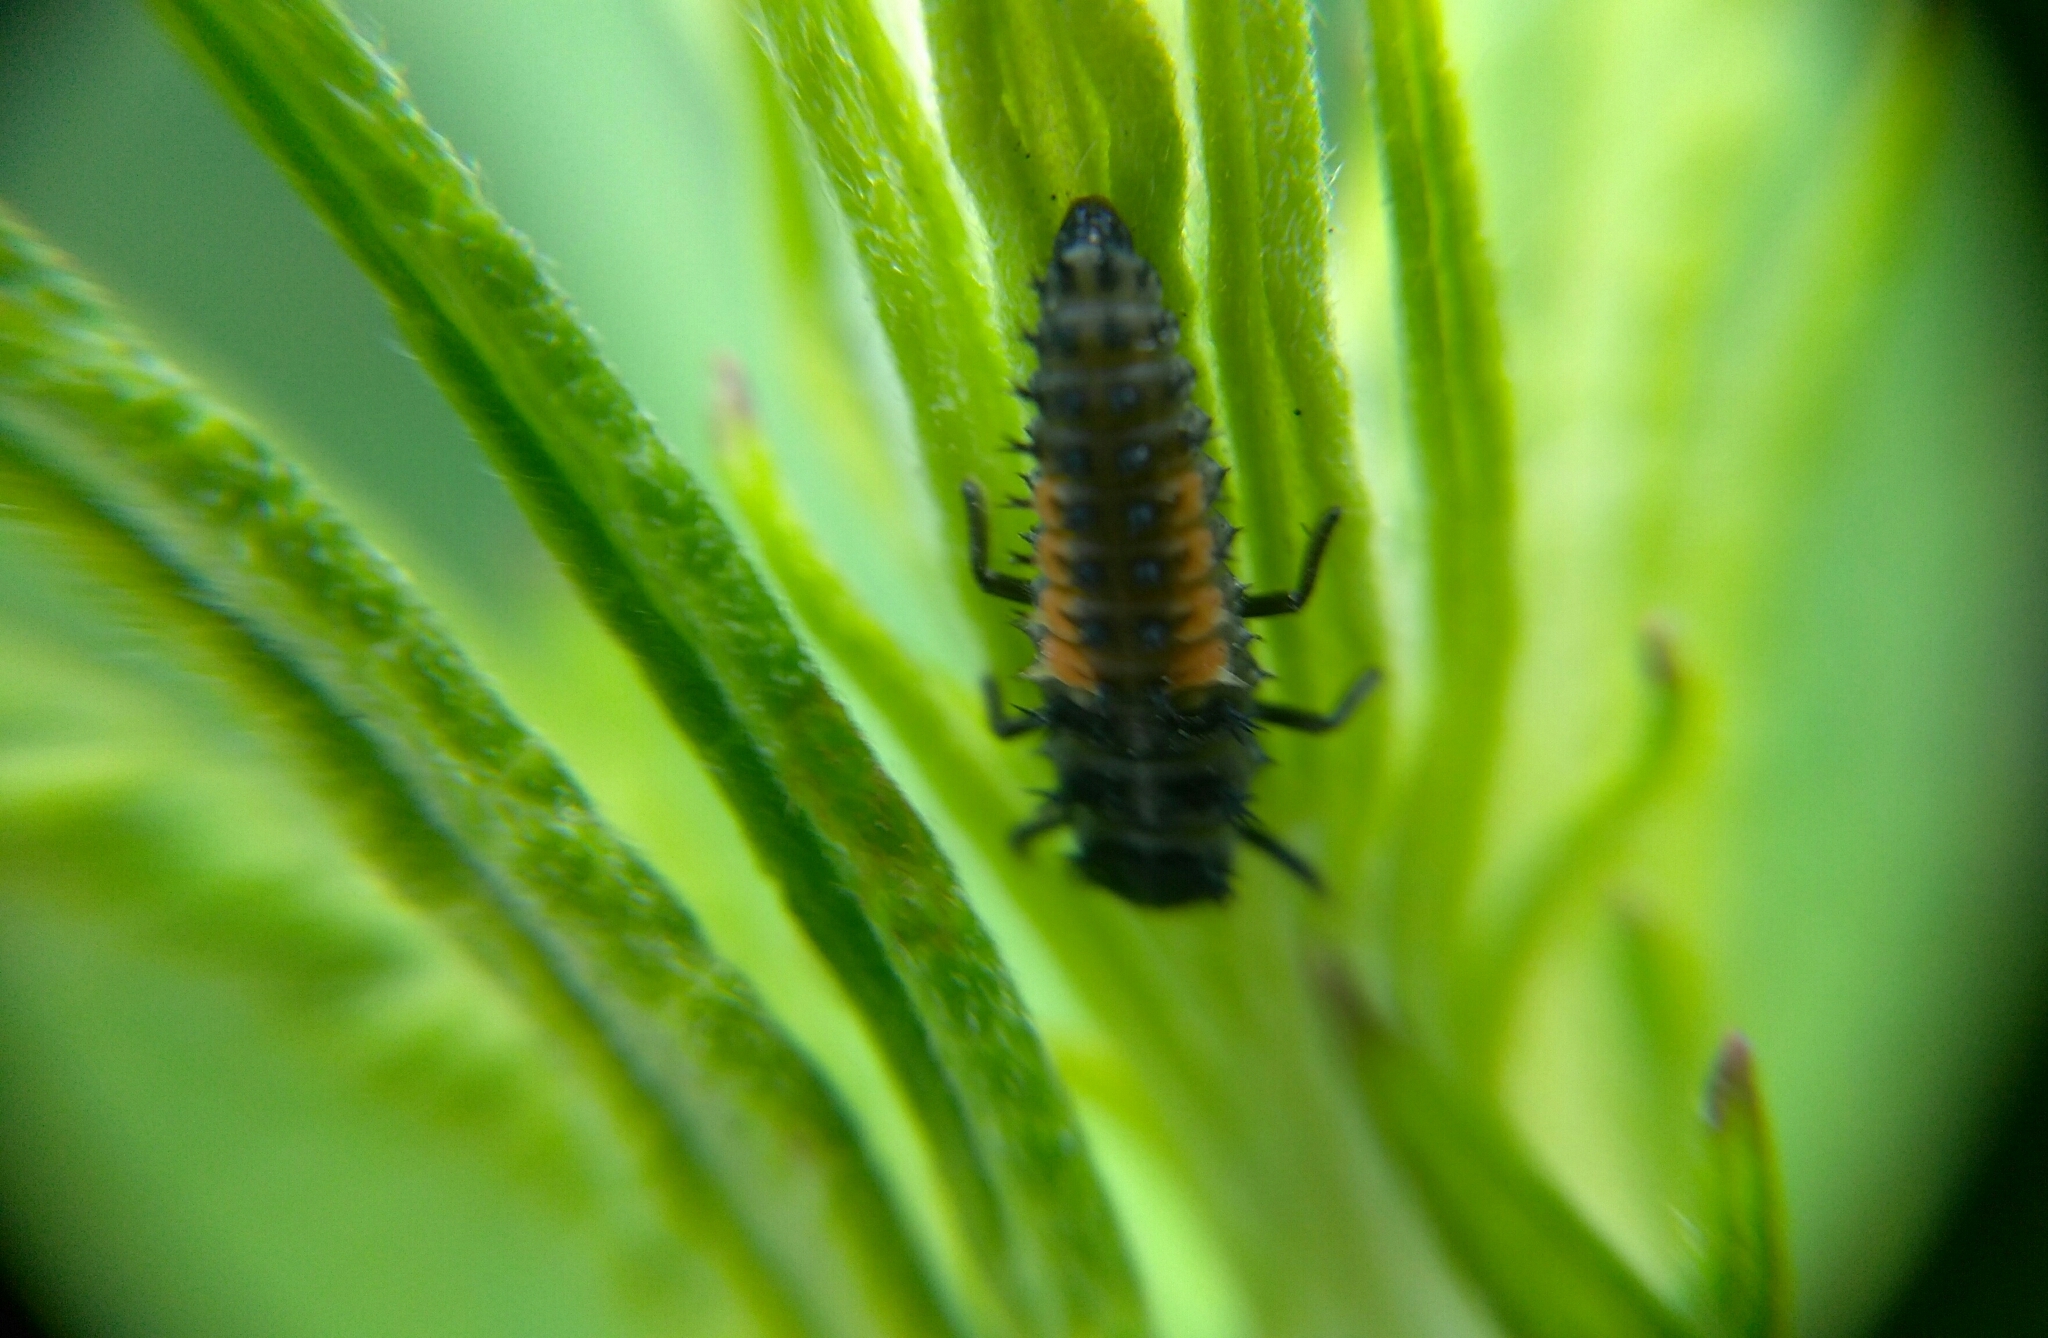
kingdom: Animalia
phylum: Arthropoda
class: Insecta
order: Coleoptera
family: Coccinellidae
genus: Harmonia
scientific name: Harmonia axyridis
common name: Harlequin ladybird
